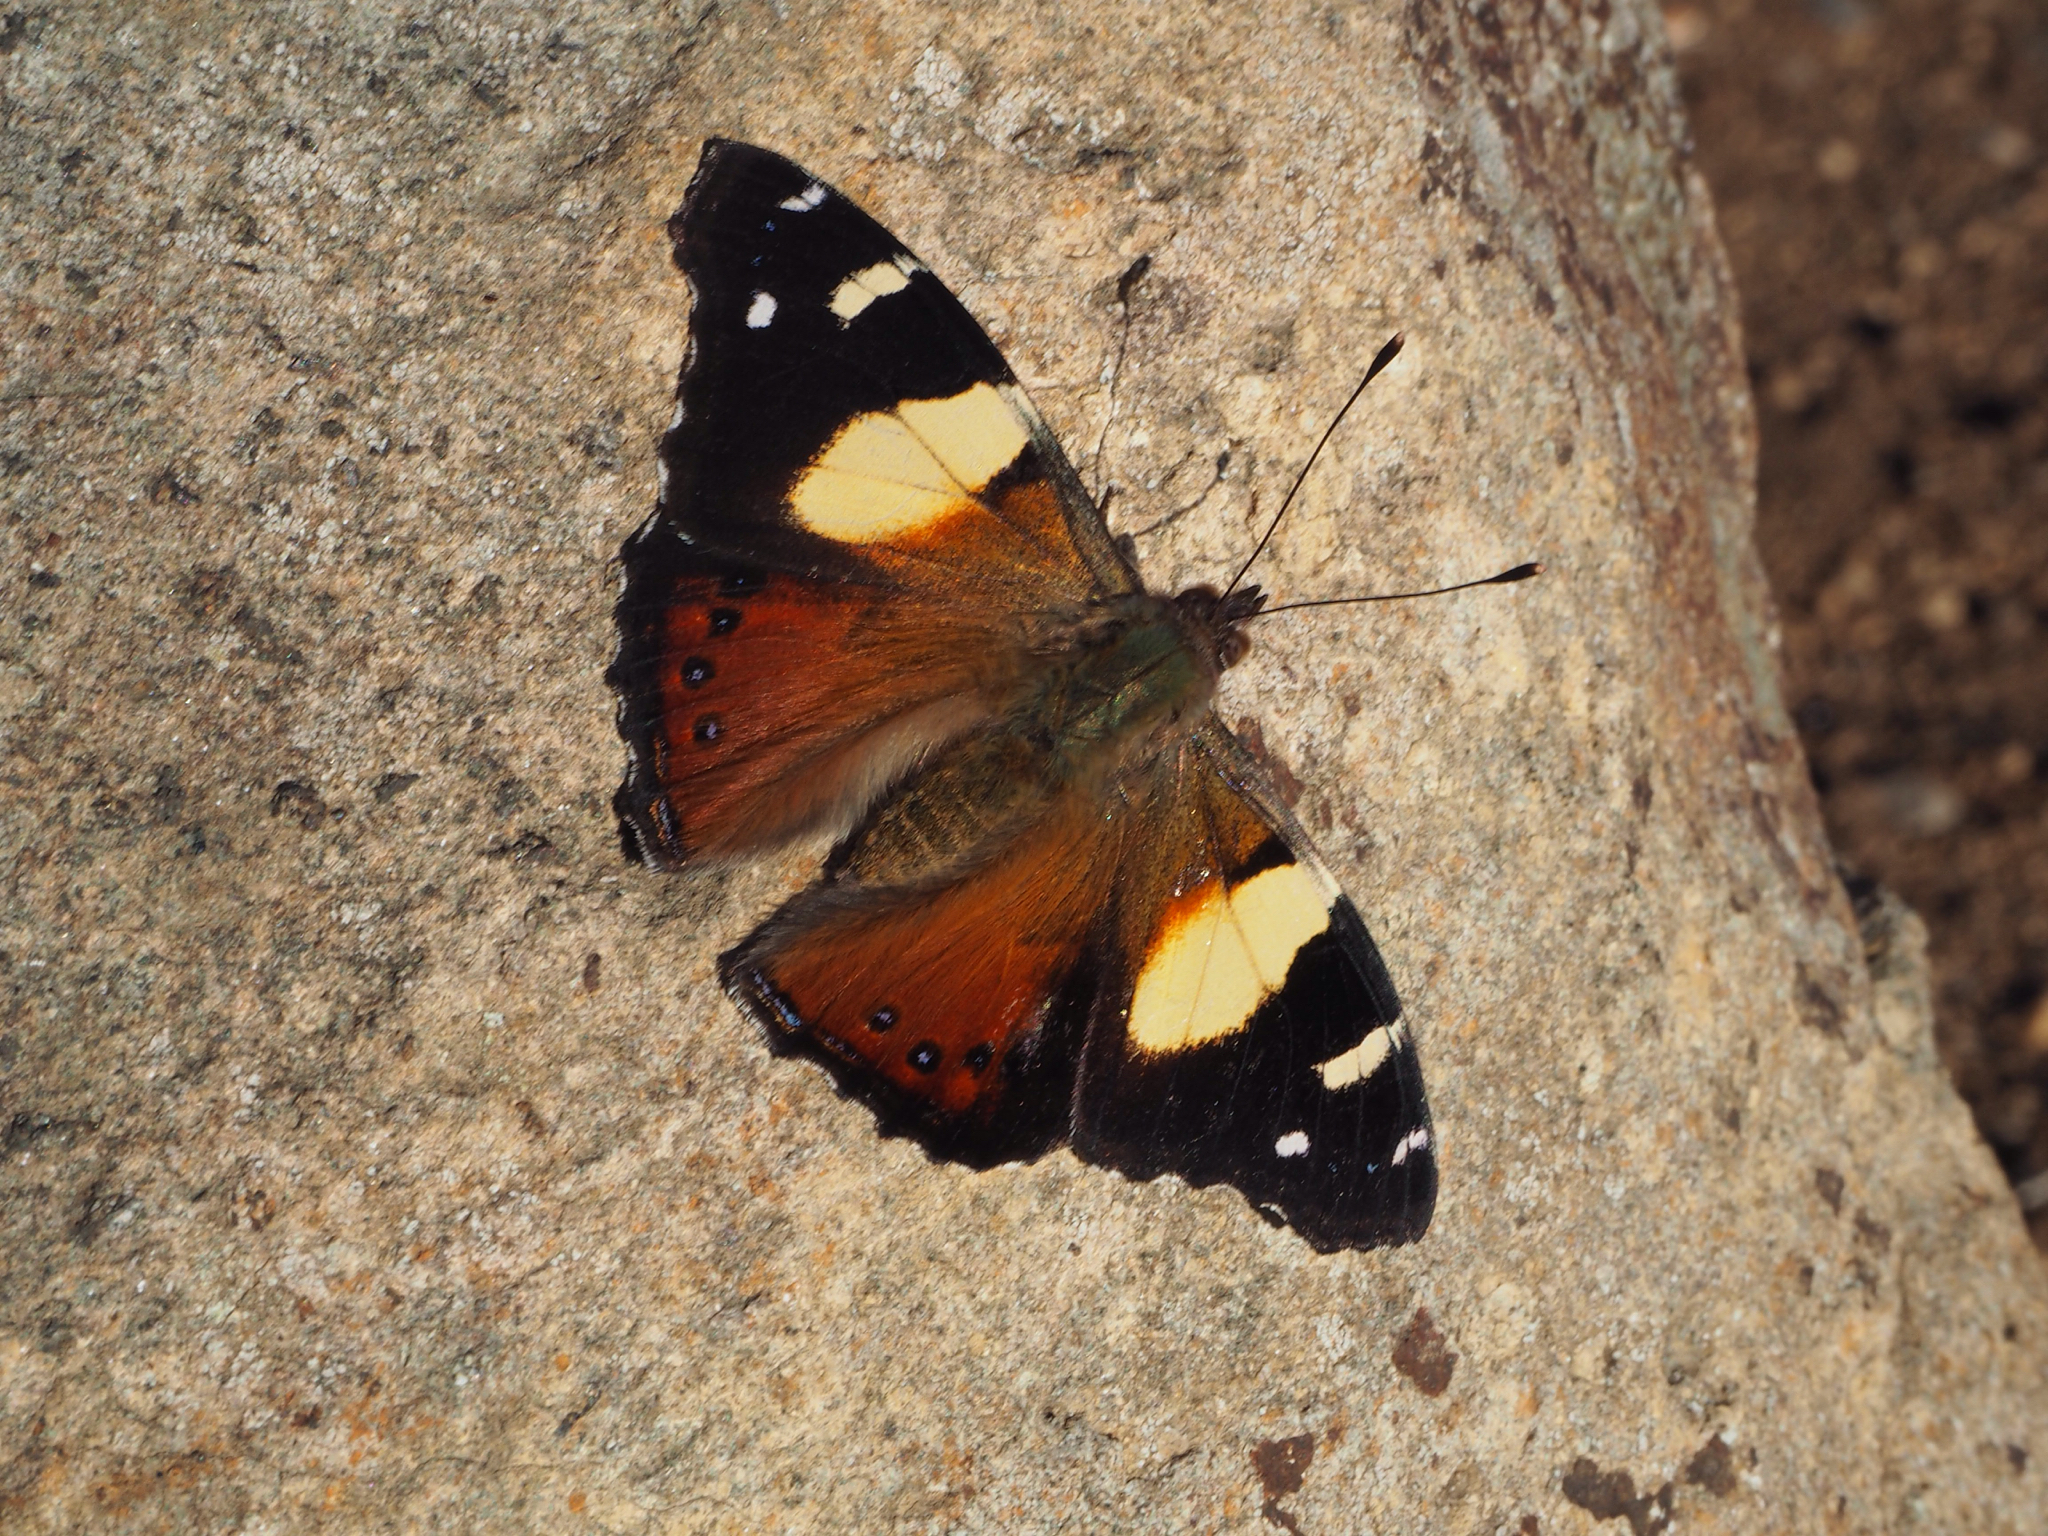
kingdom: Animalia
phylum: Arthropoda
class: Insecta
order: Lepidoptera
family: Nymphalidae
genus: Vanessa
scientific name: Vanessa itea
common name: Yellow admiral
